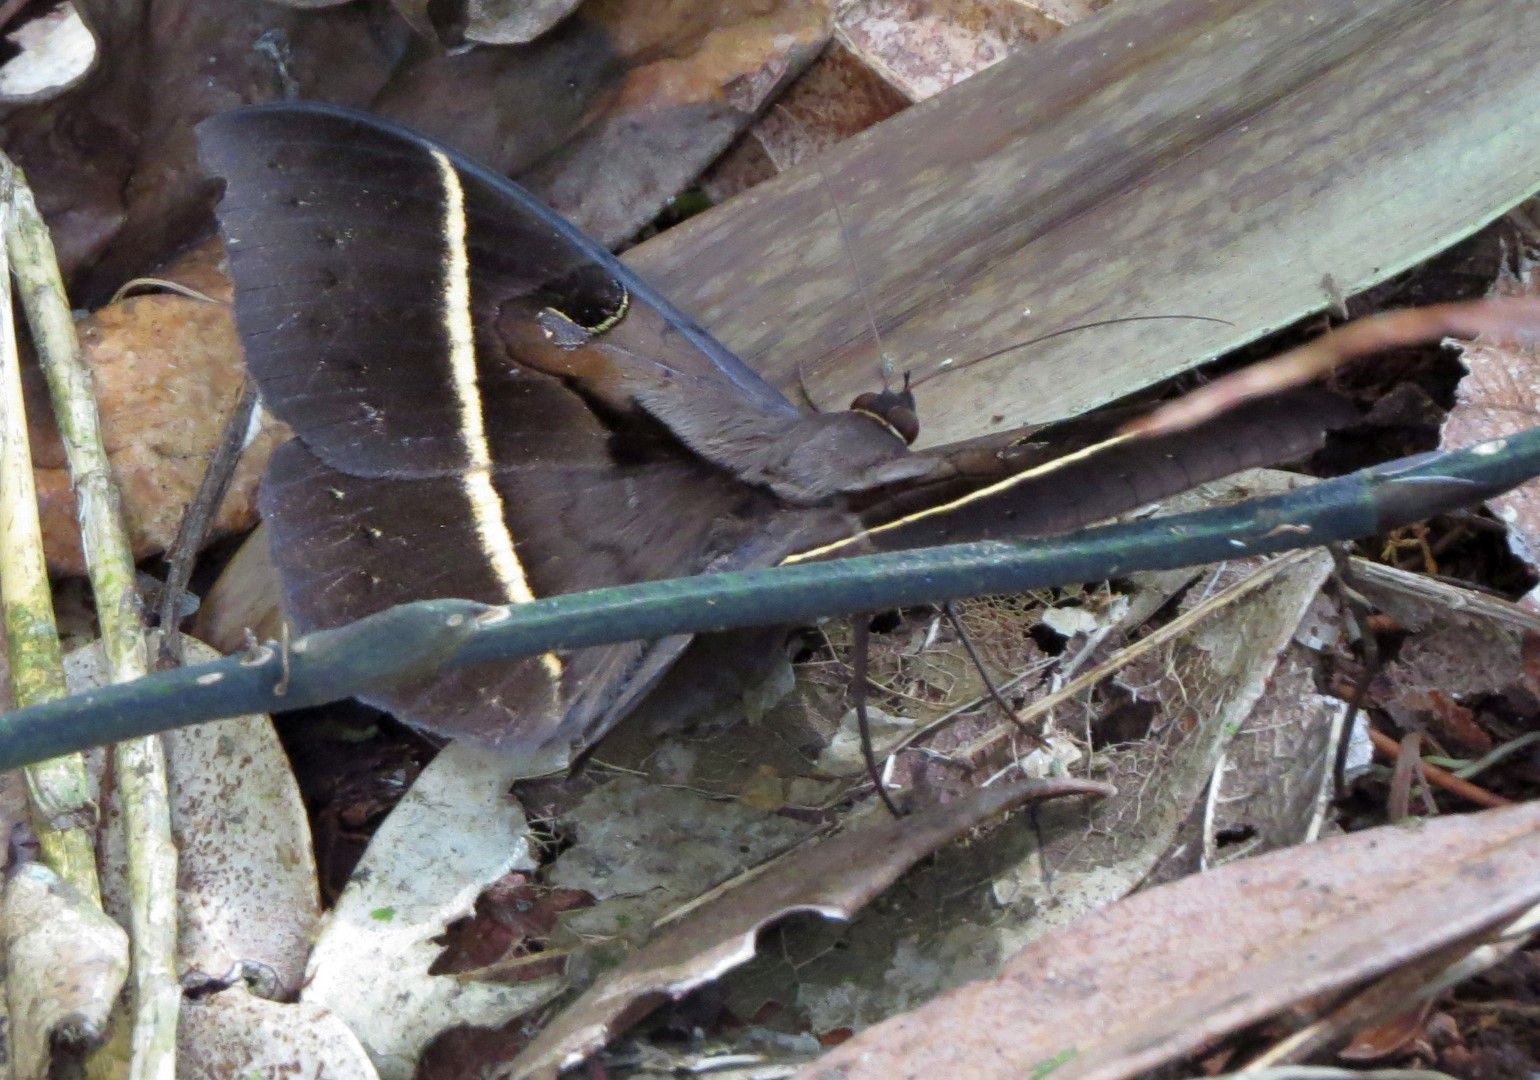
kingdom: Animalia
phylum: Arthropoda
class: Insecta
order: Lepidoptera
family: Erebidae
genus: Cyligramma
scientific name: Cyligramma joa
